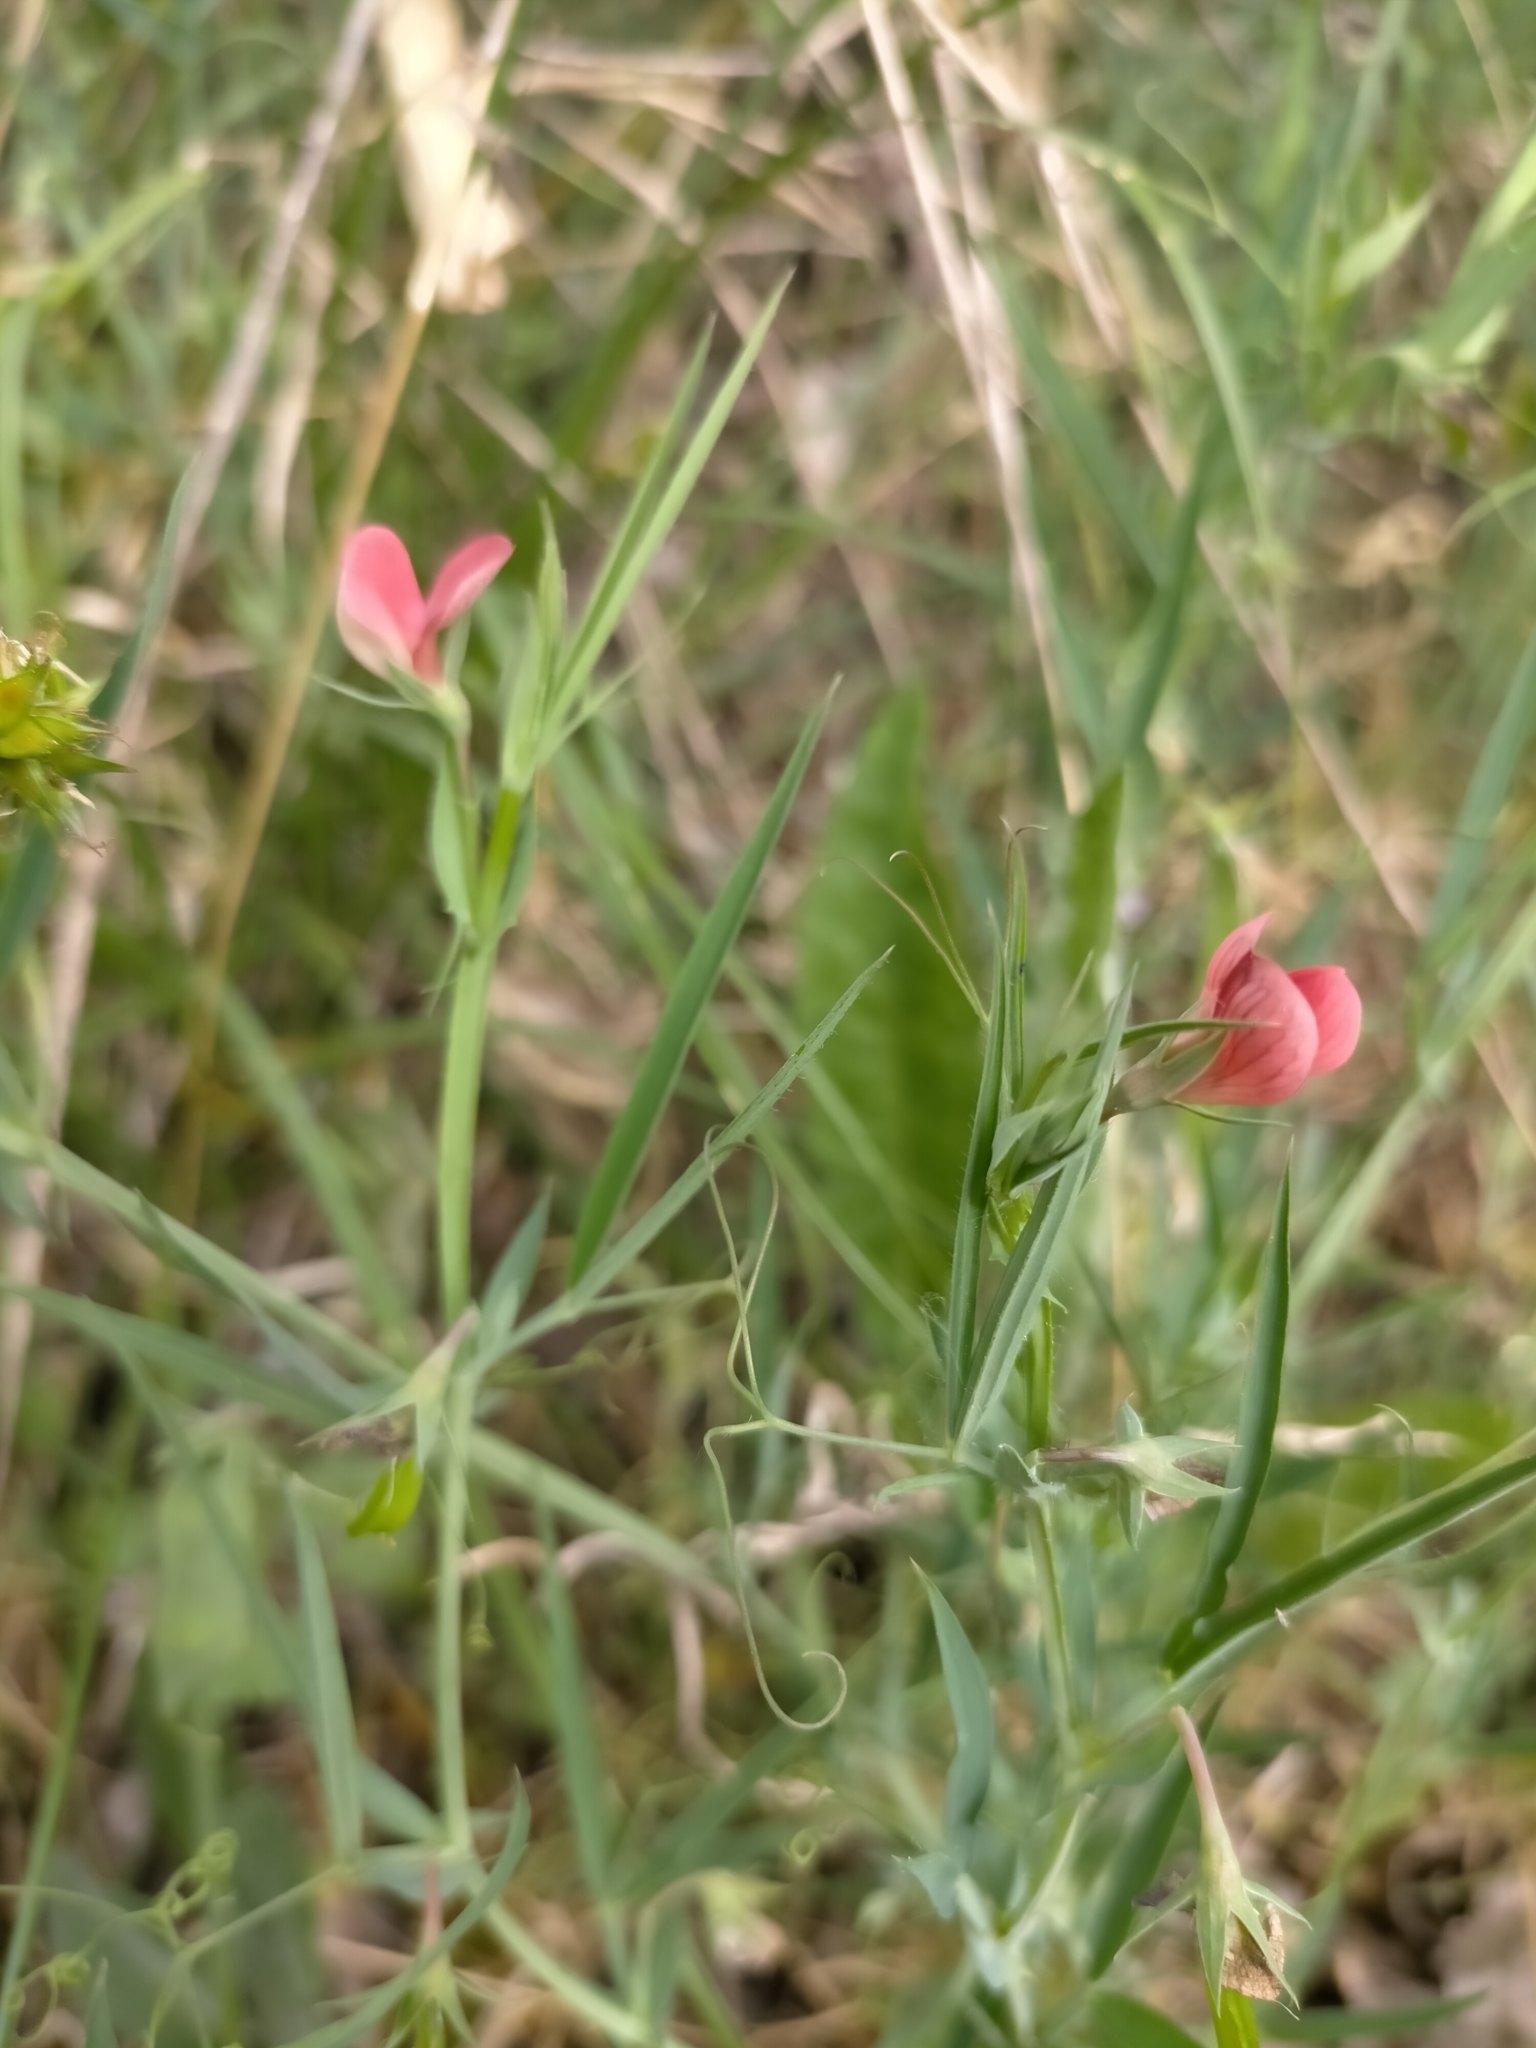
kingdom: Plantae
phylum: Tracheophyta
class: Magnoliopsida
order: Fabales
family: Fabaceae
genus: Lathyrus
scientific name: Lathyrus cicera
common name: Red vetchling
